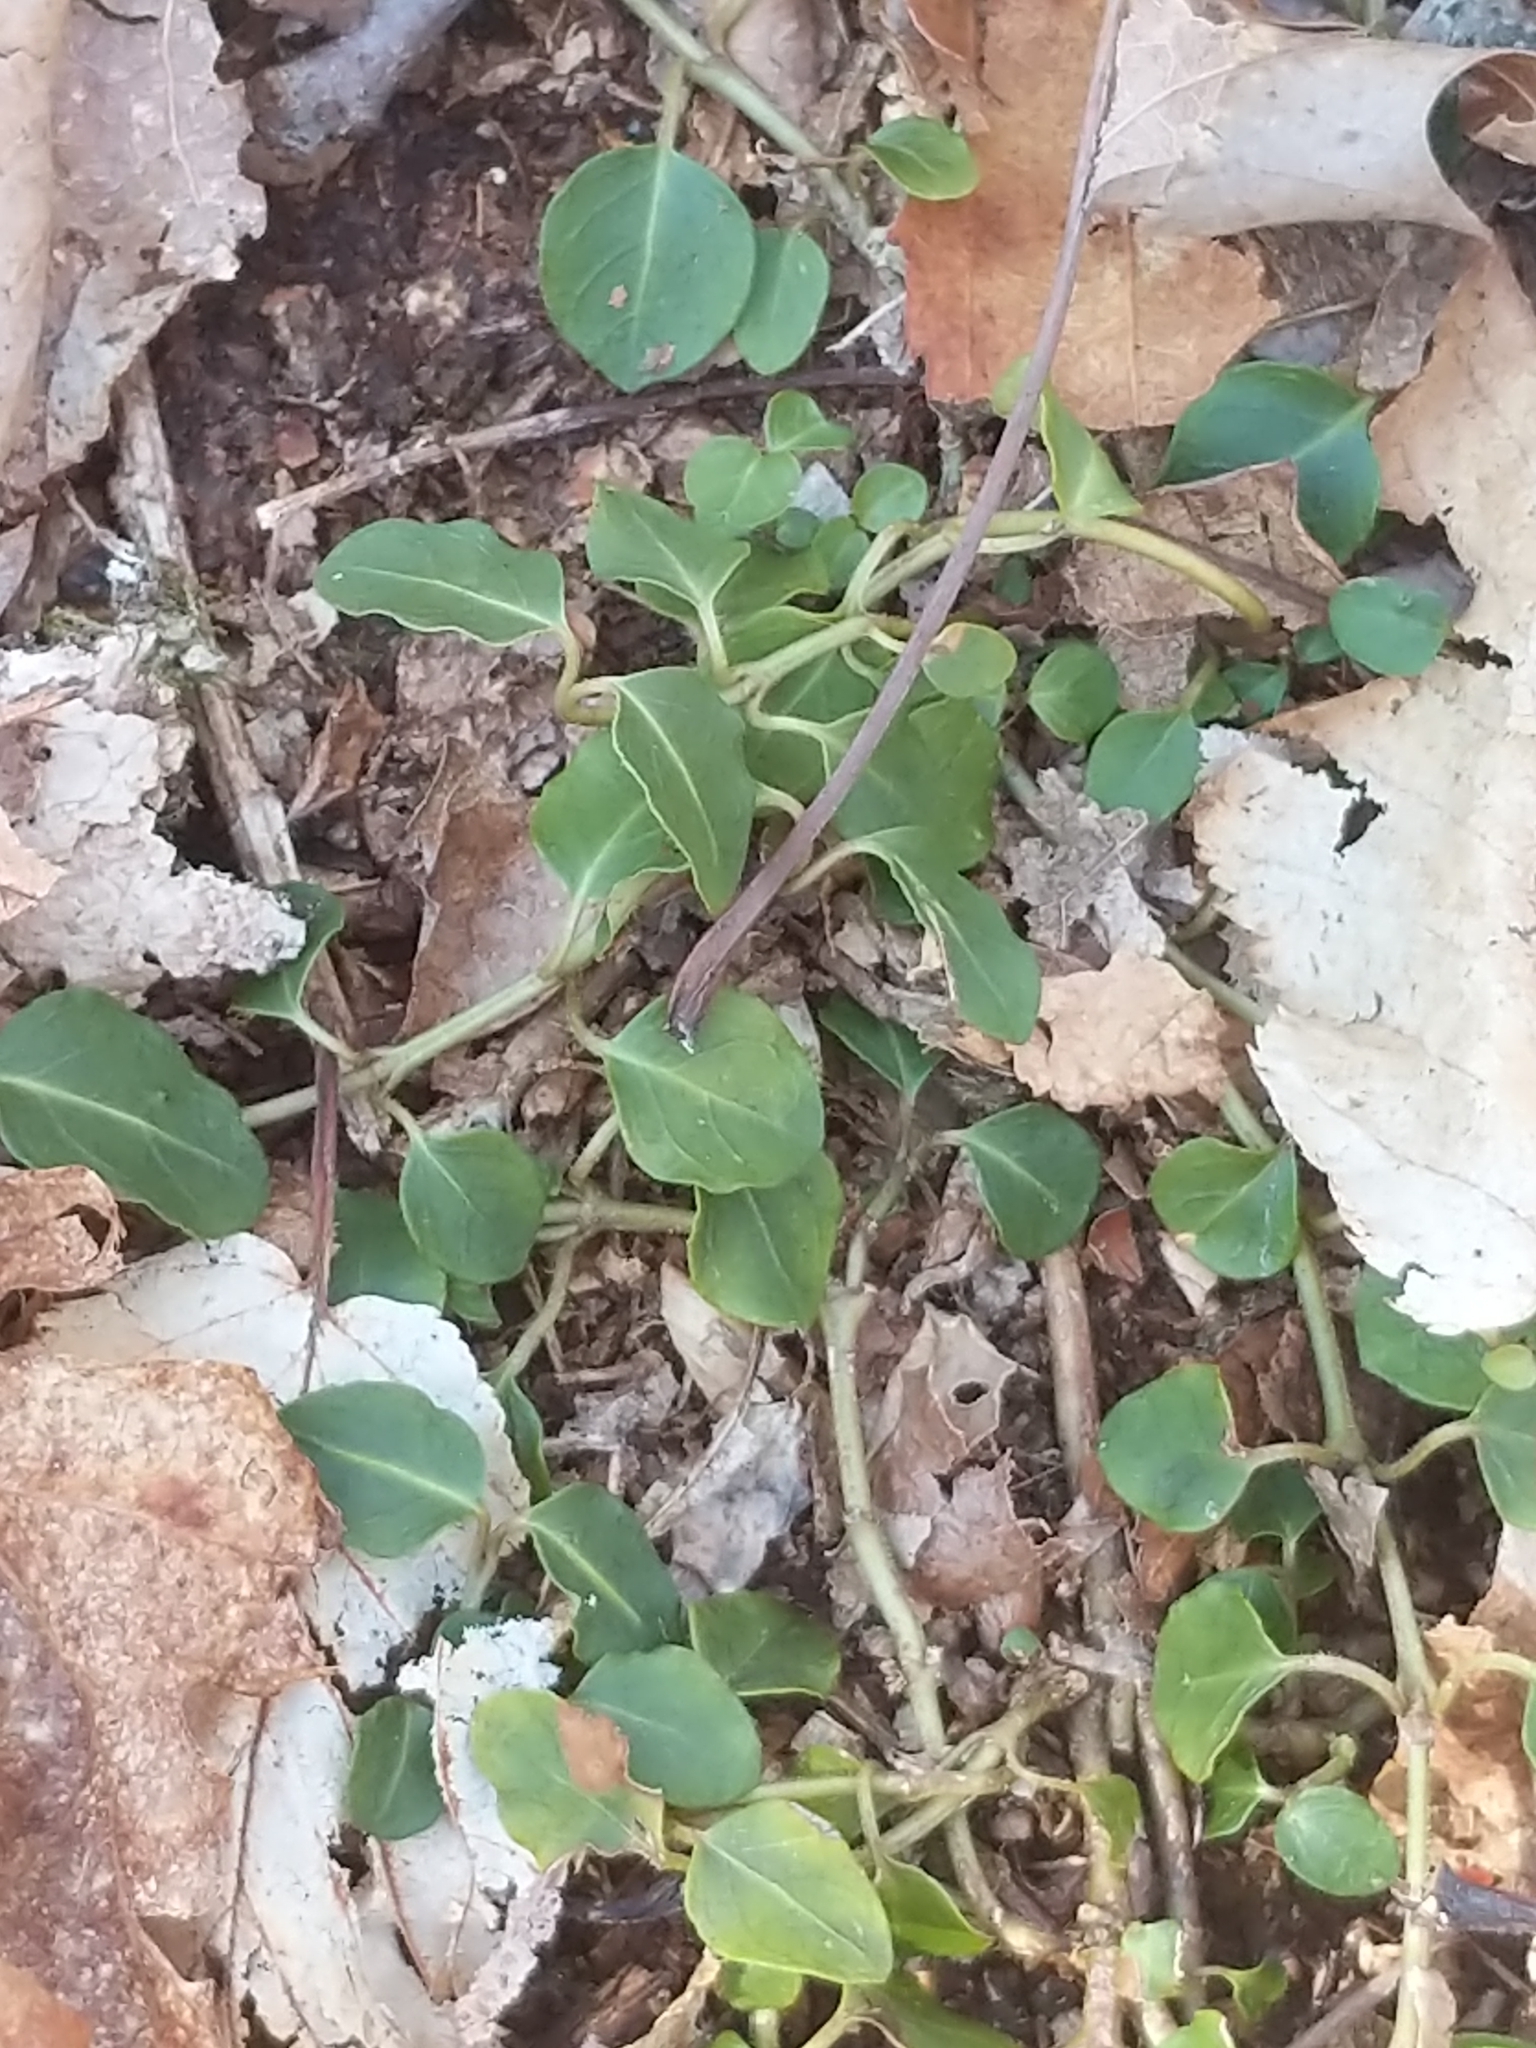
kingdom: Plantae
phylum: Tracheophyta
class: Magnoliopsida
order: Gentianales
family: Rubiaceae
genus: Mitchella
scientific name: Mitchella repens
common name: Partridge-berry
